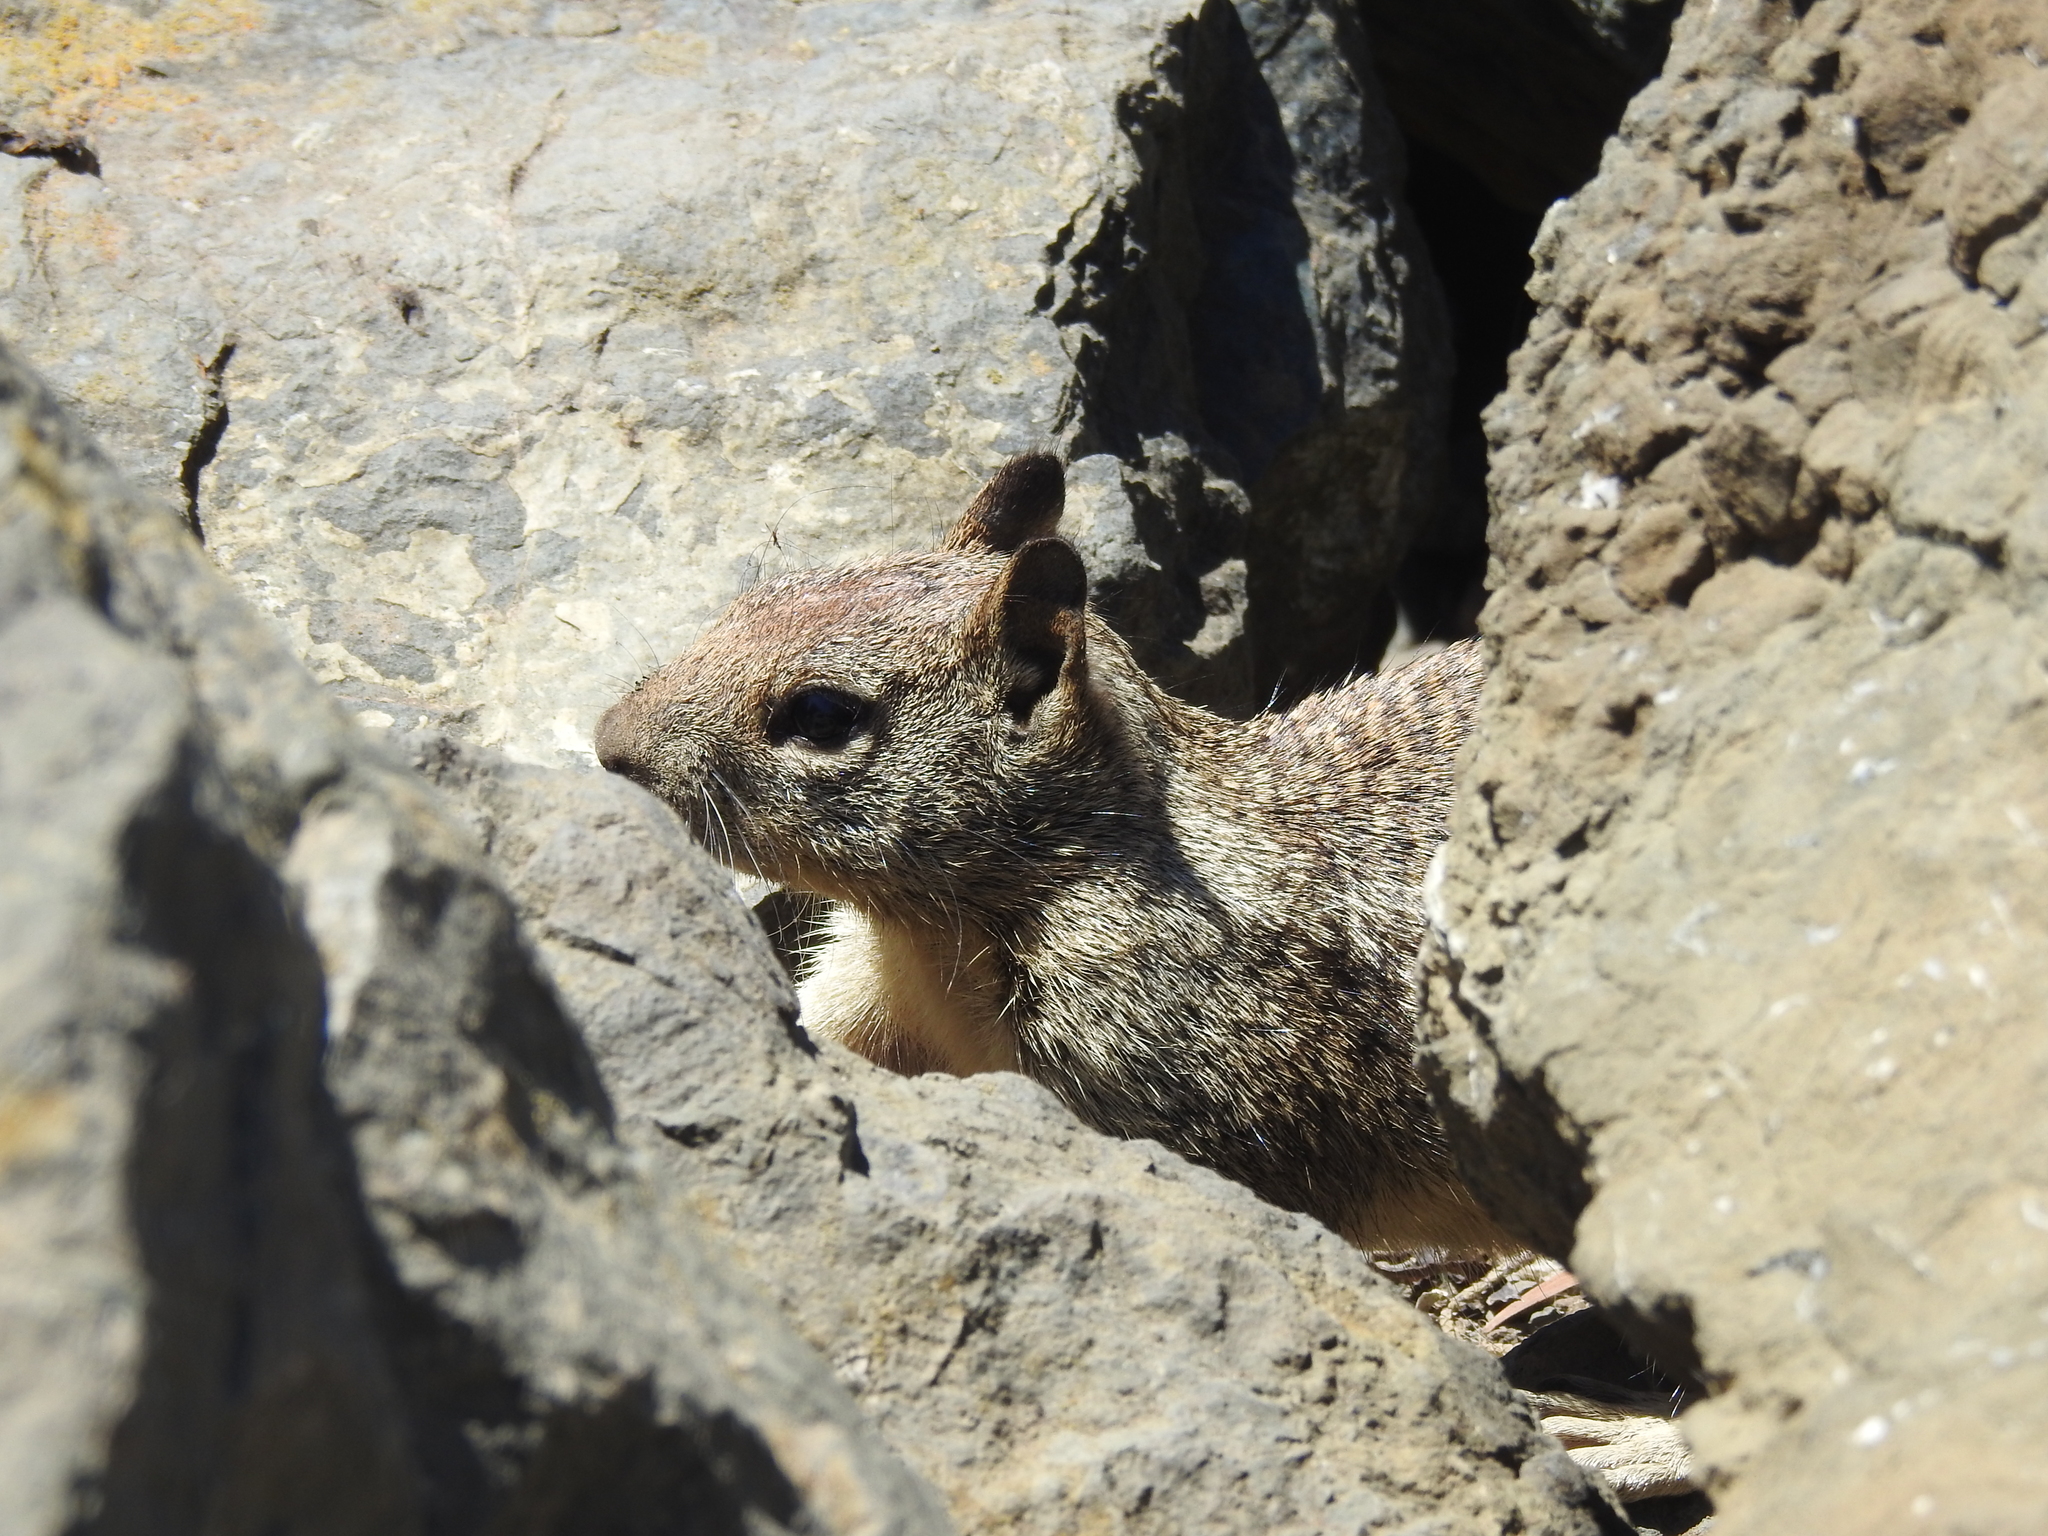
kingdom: Animalia
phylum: Chordata
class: Mammalia
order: Rodentia
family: Sciuridae
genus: Otospermophilus
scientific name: Otospermophilus beecheyi
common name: California ground squirrel
